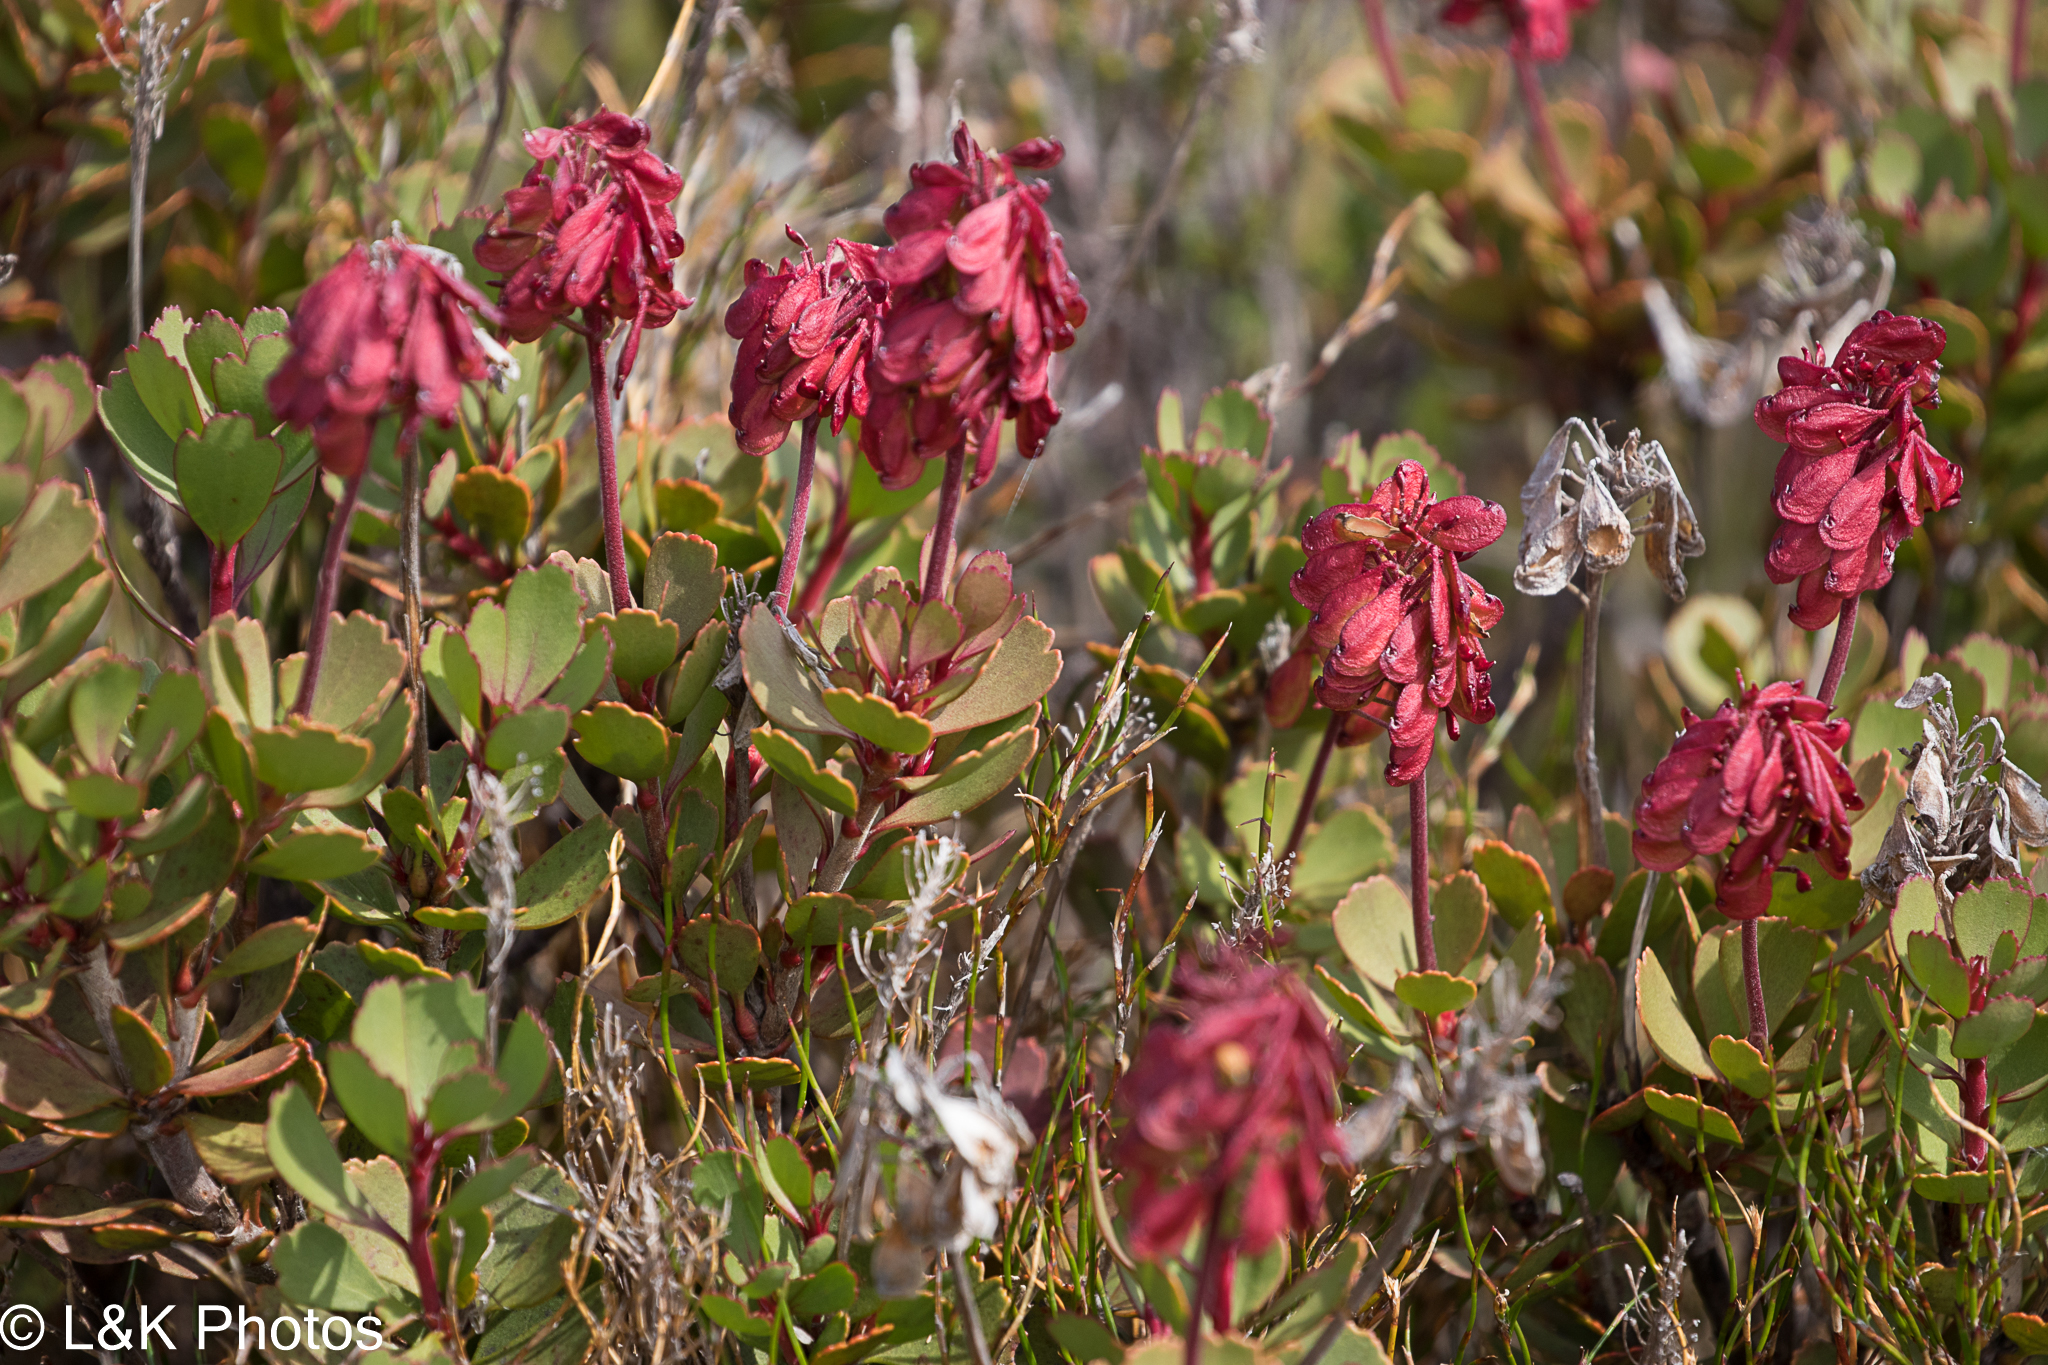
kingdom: Plantae
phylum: Tracheophyta
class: Magnoliopsida
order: Proteales
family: Proteaceae
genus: Bellendena
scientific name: Bellendena montana
